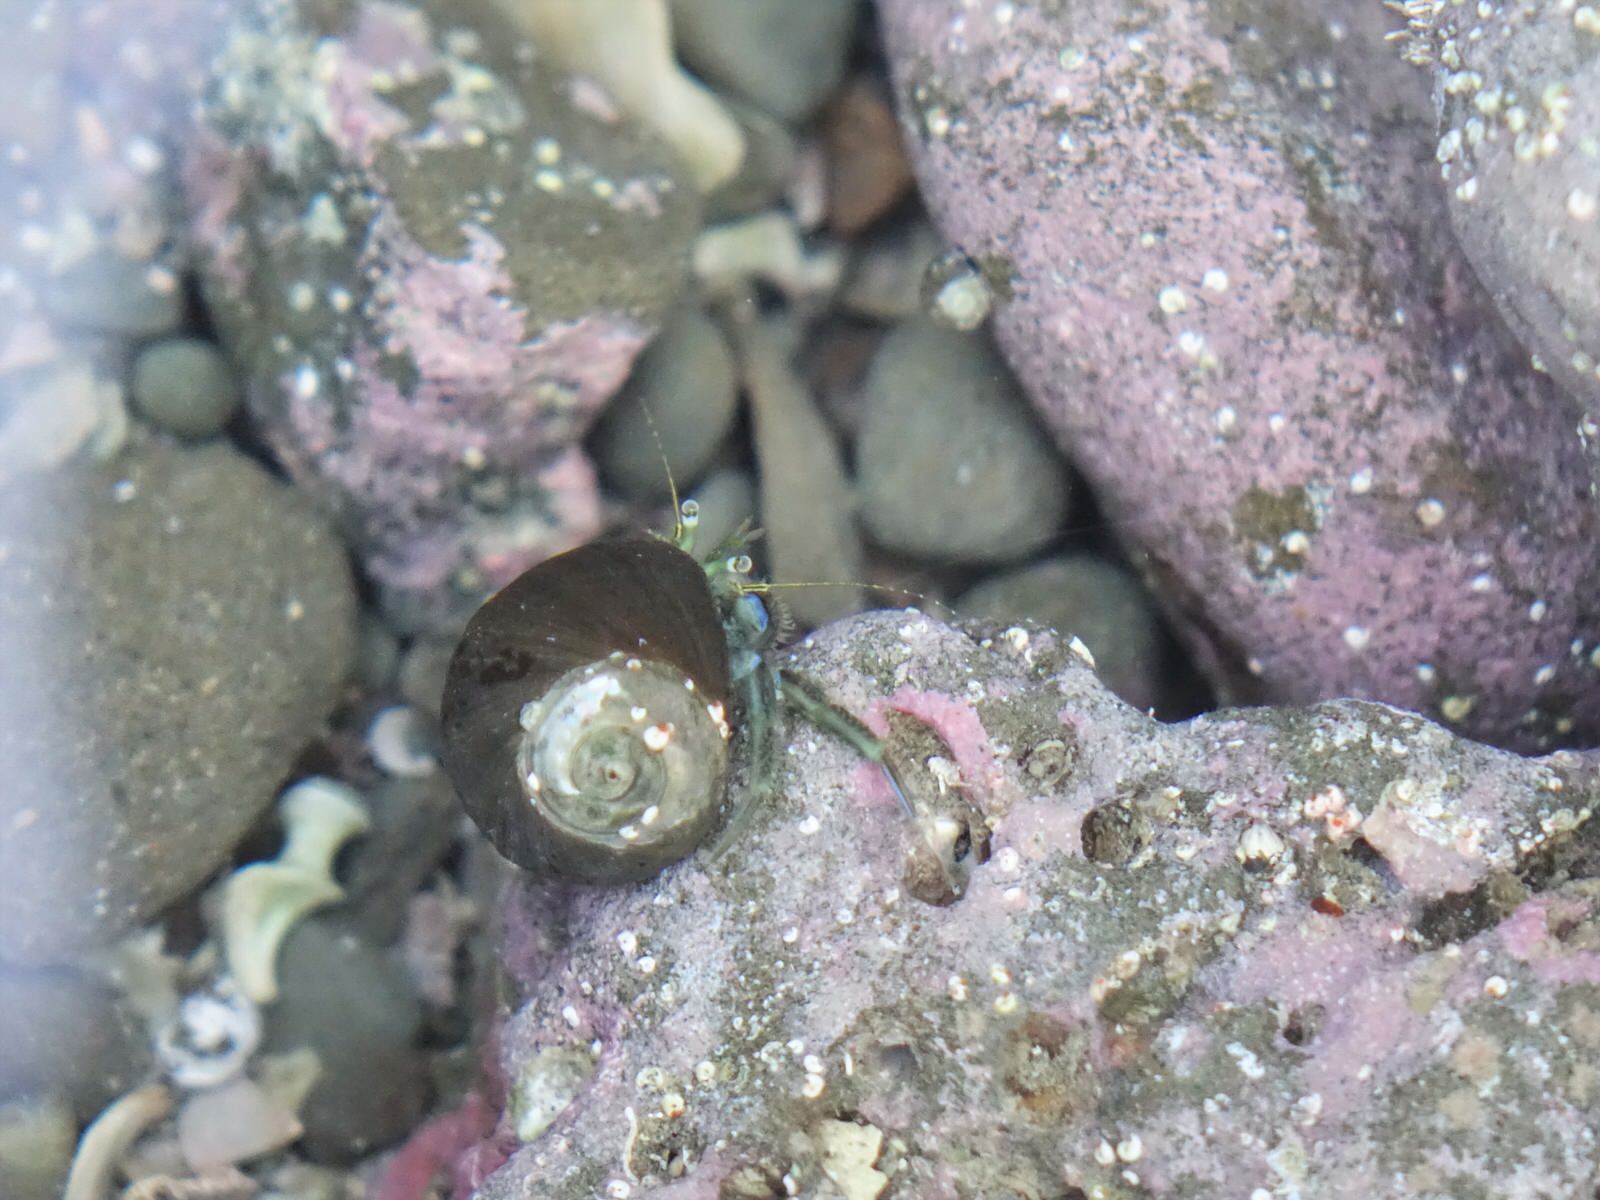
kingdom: Animalia
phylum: Arthropoda
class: Malacostraca
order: Decapoda
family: Paguridae
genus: Pagurus
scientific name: Pagurus novizealandiae
